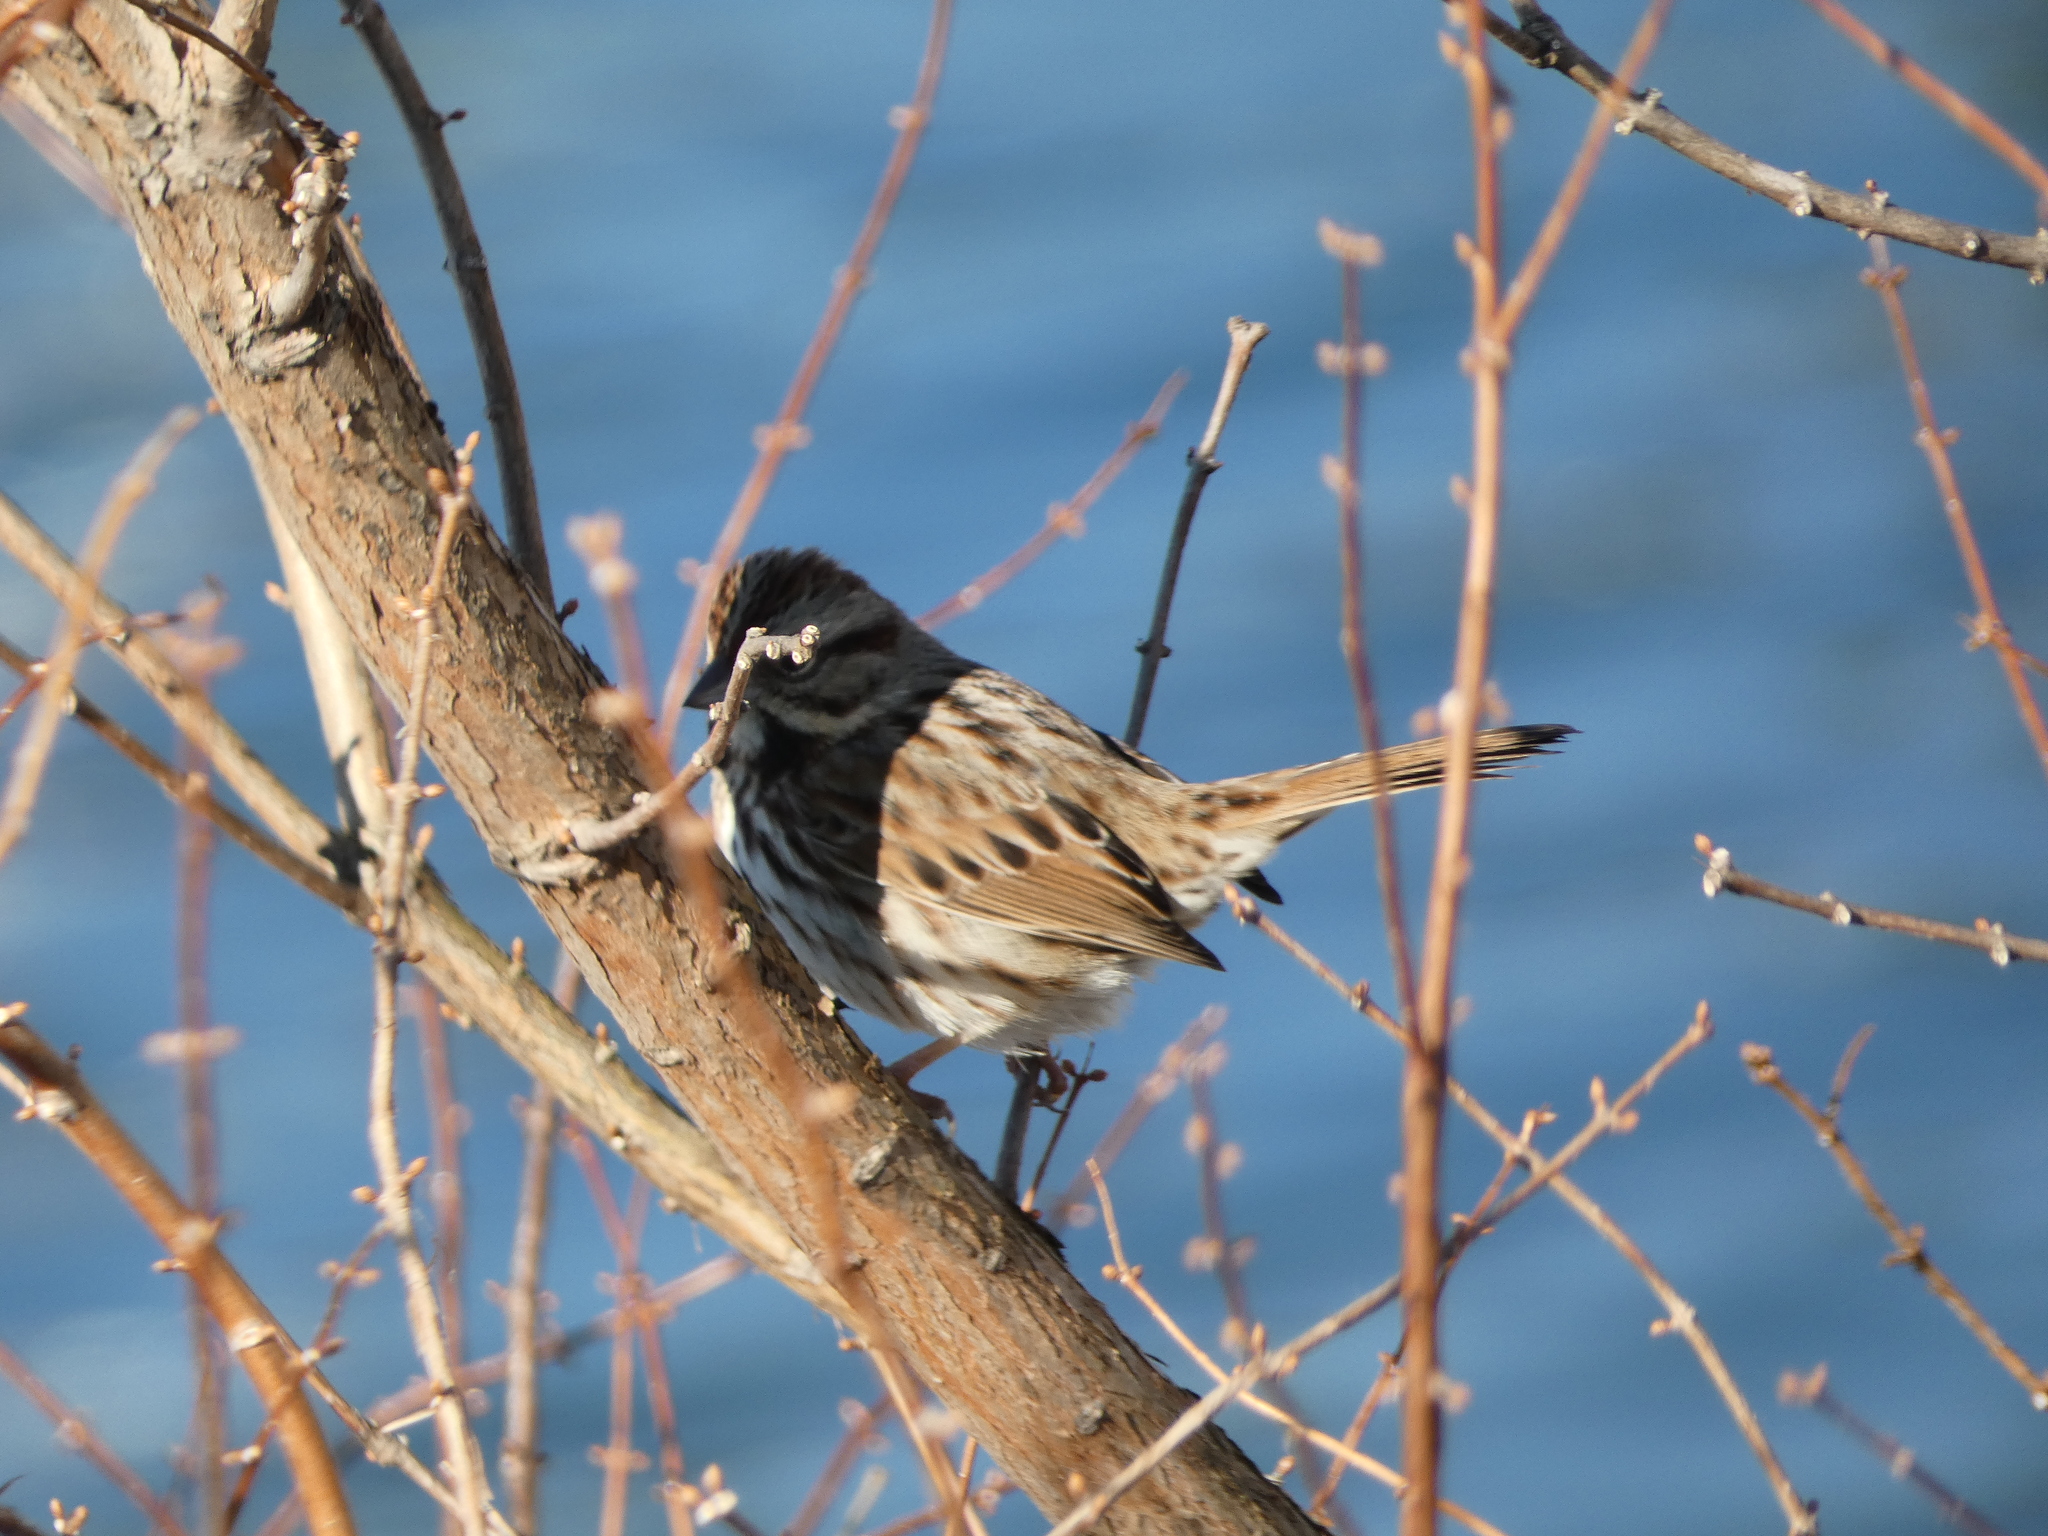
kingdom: Animalia
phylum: Chordata
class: Aves
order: Passeriformes
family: Passerellidae
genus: Melospiza
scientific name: Melospiza melodia
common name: Song sparrow
